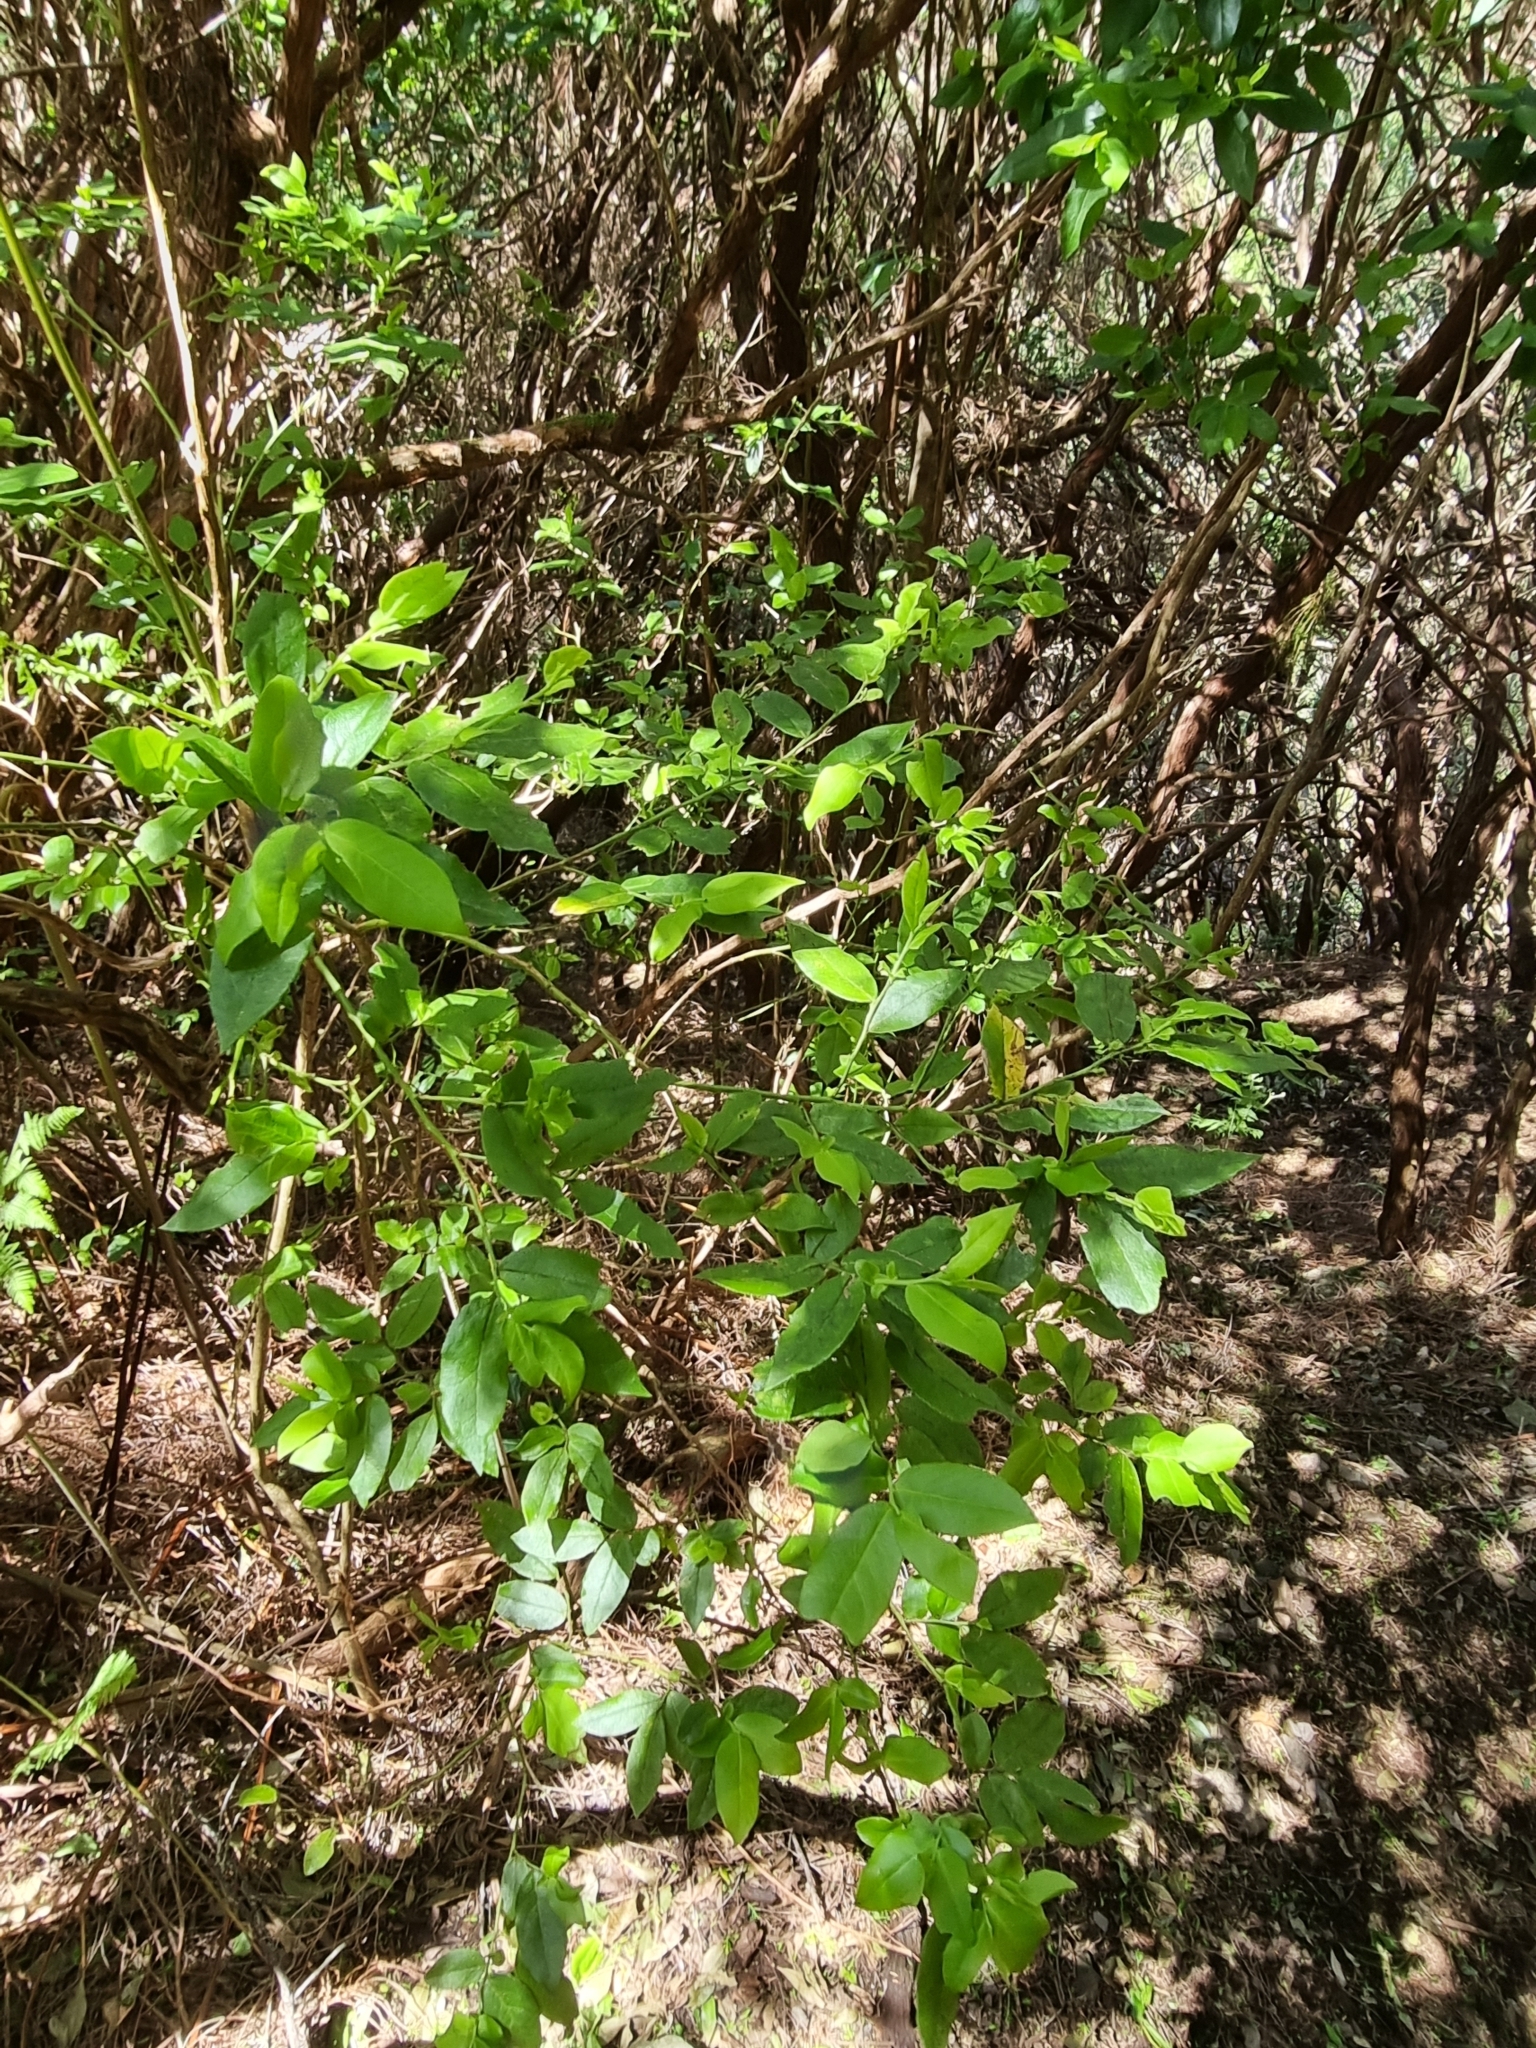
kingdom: Plantae
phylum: Tracheophyta
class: Magnoliopsida
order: Ericales
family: Ericaceae
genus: Vaccinium
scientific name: Vaccinium padifolium
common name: Madeiran blueberry
